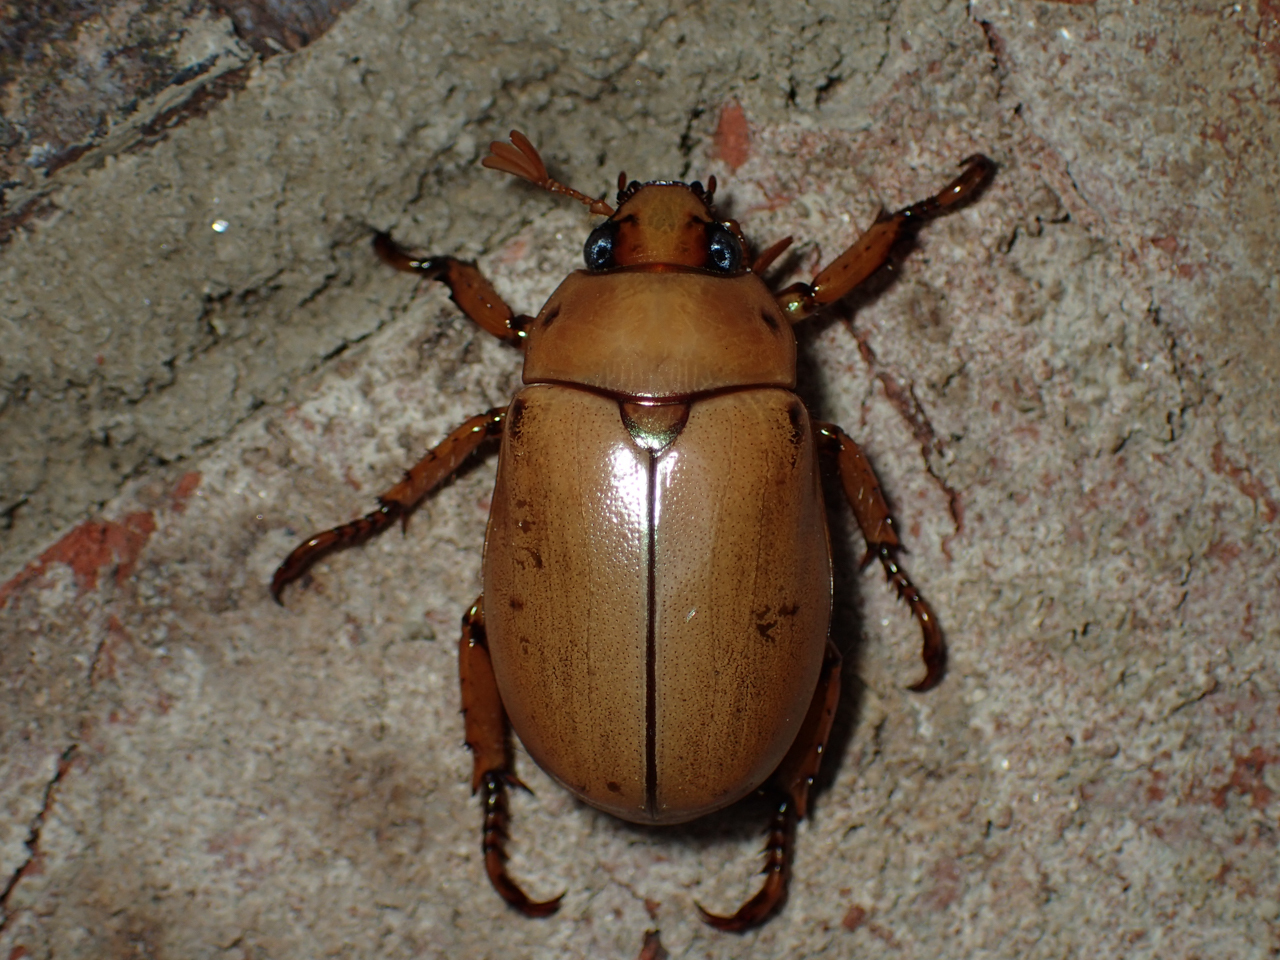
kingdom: Animalia
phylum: Arthropoda
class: Insecta
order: Coleoptera
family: Scarabaeidae
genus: Pelidnota
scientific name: Pelidnota punctata
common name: Grapevine beetle
